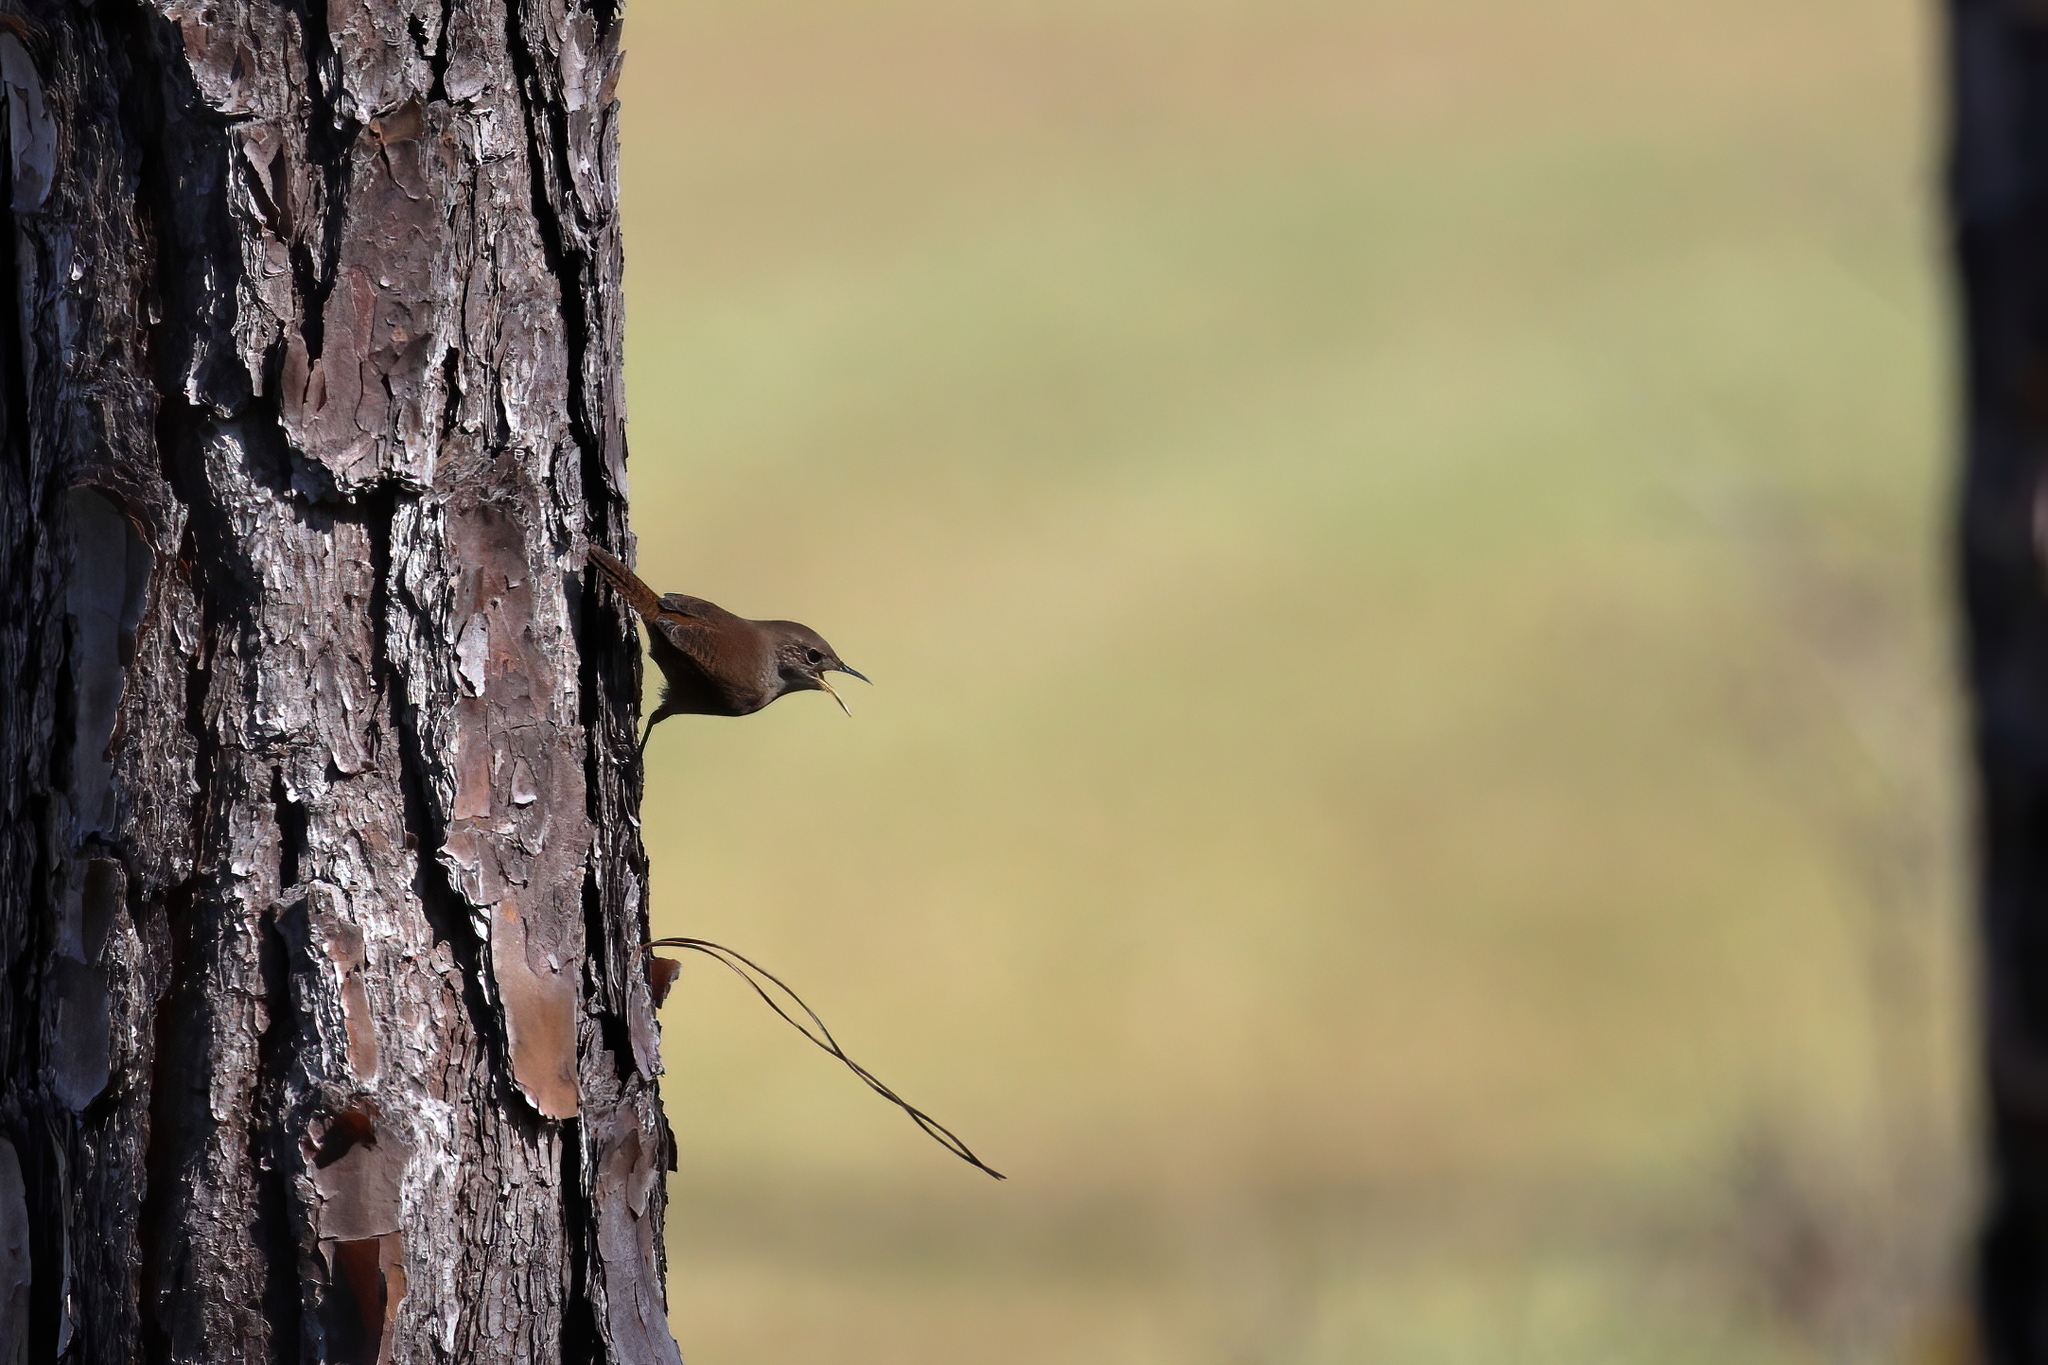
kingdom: Animalia
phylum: Chordata
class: Aves
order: Passeriformes
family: Troglodytidae
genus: Troglodytes
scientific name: Troglodytes aedon
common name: House wren
